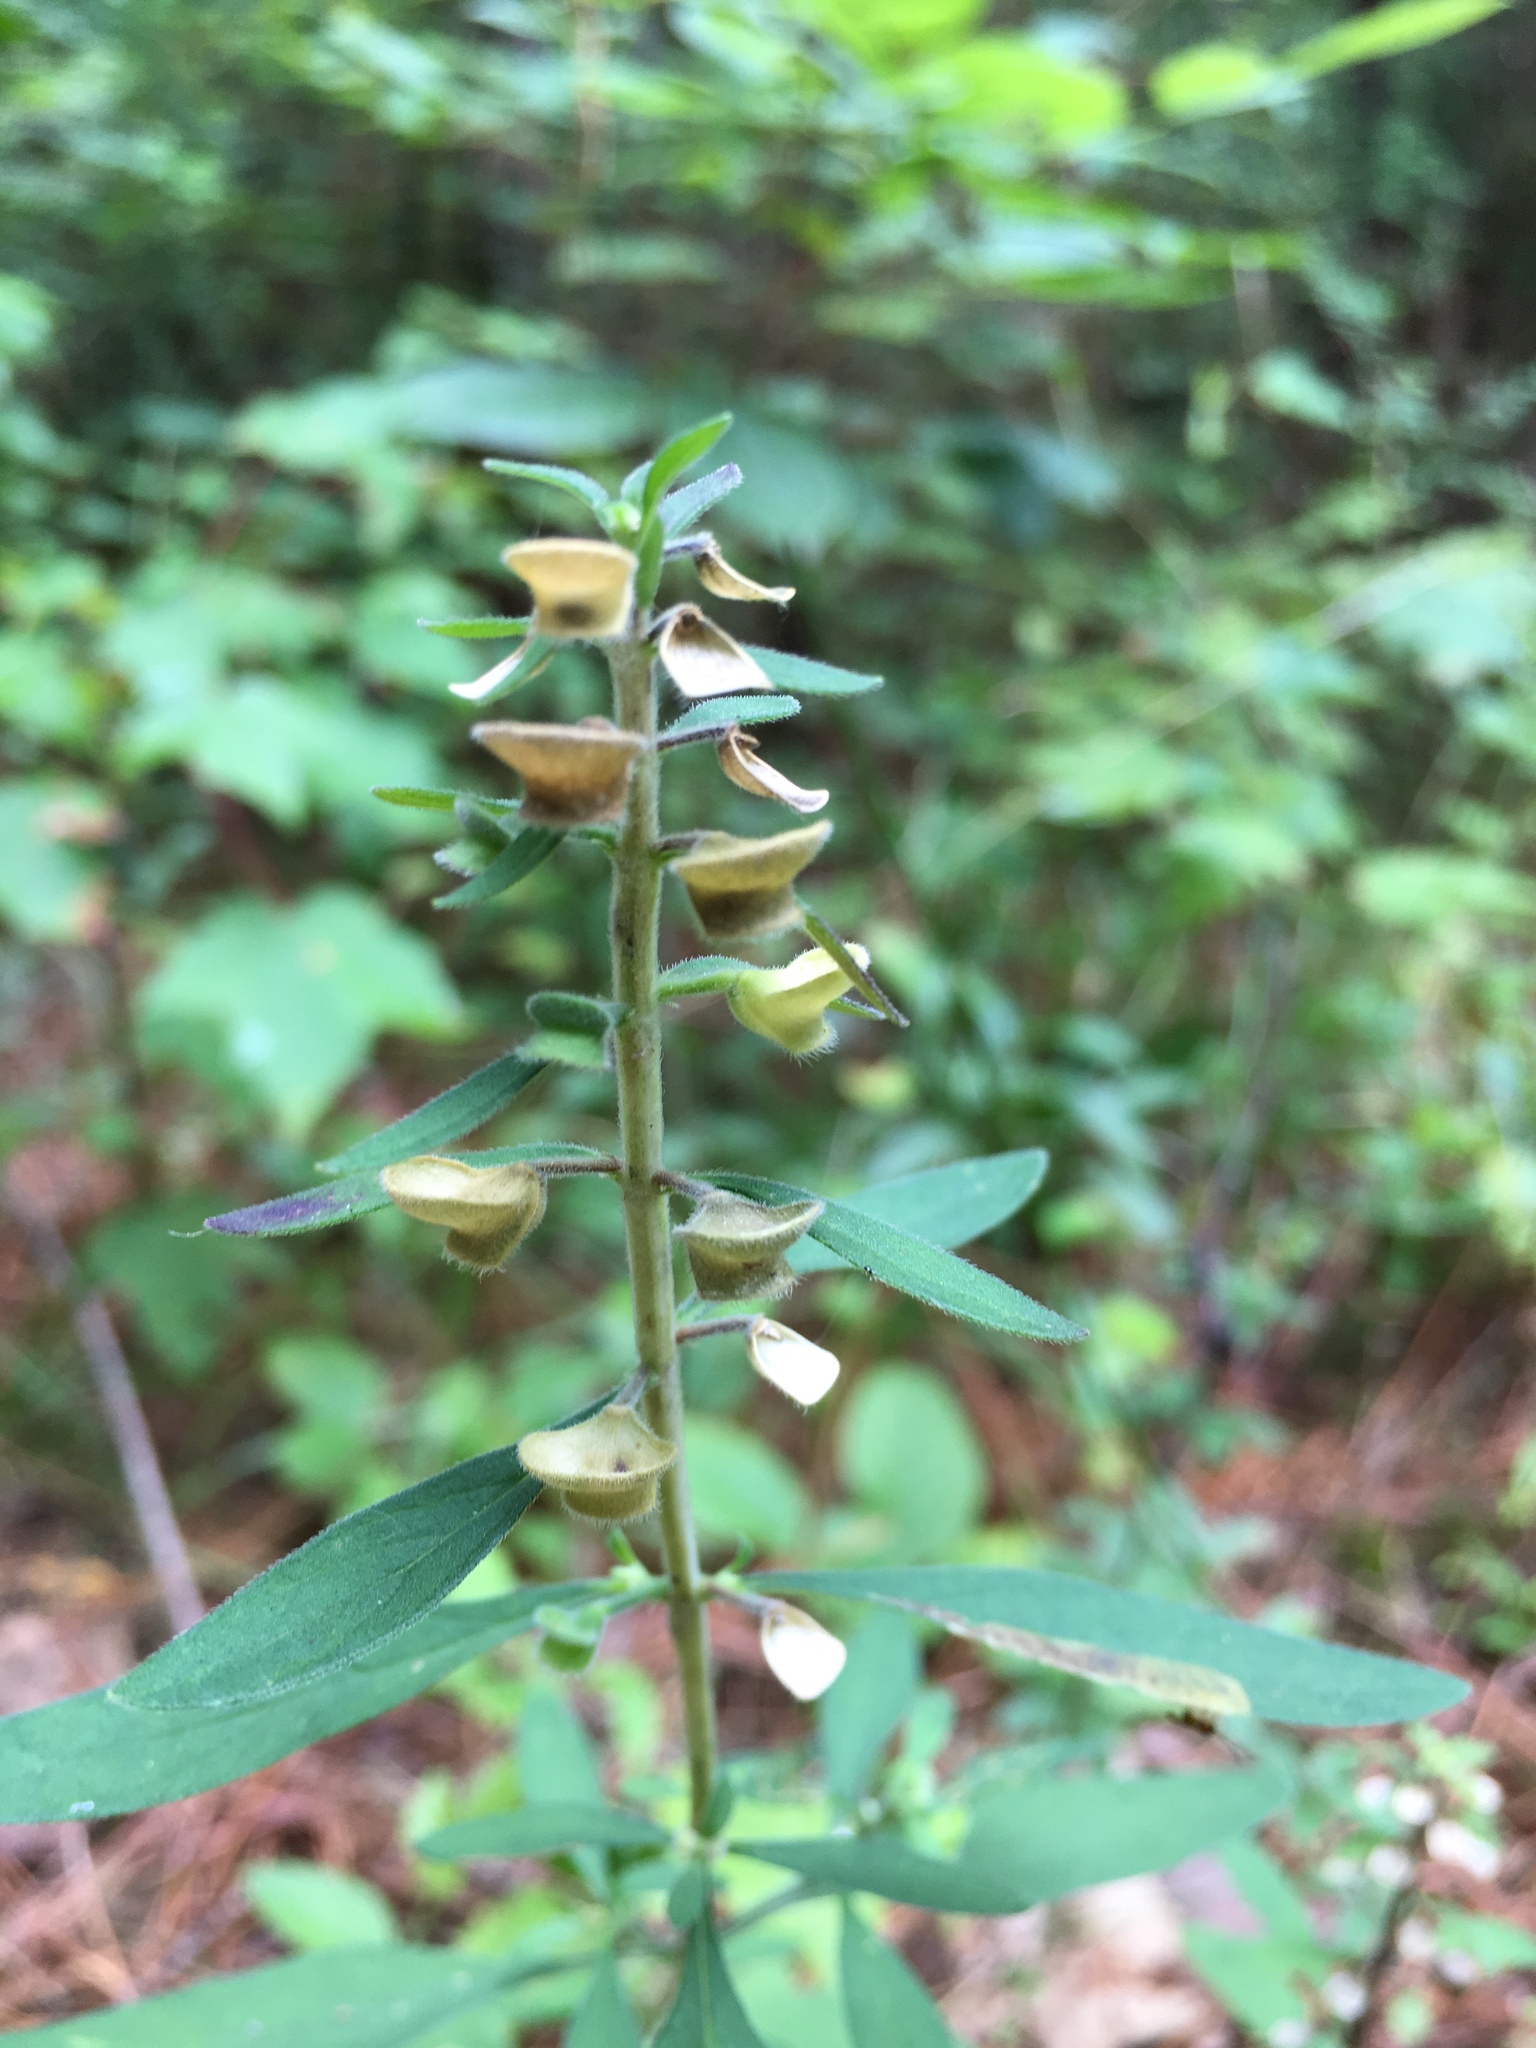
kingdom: Plantae
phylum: Tracheophyta
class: Magnoliopsida
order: Lamiales
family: Lamiaceae
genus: Scutellaria
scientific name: Scutellaria integrifolia
